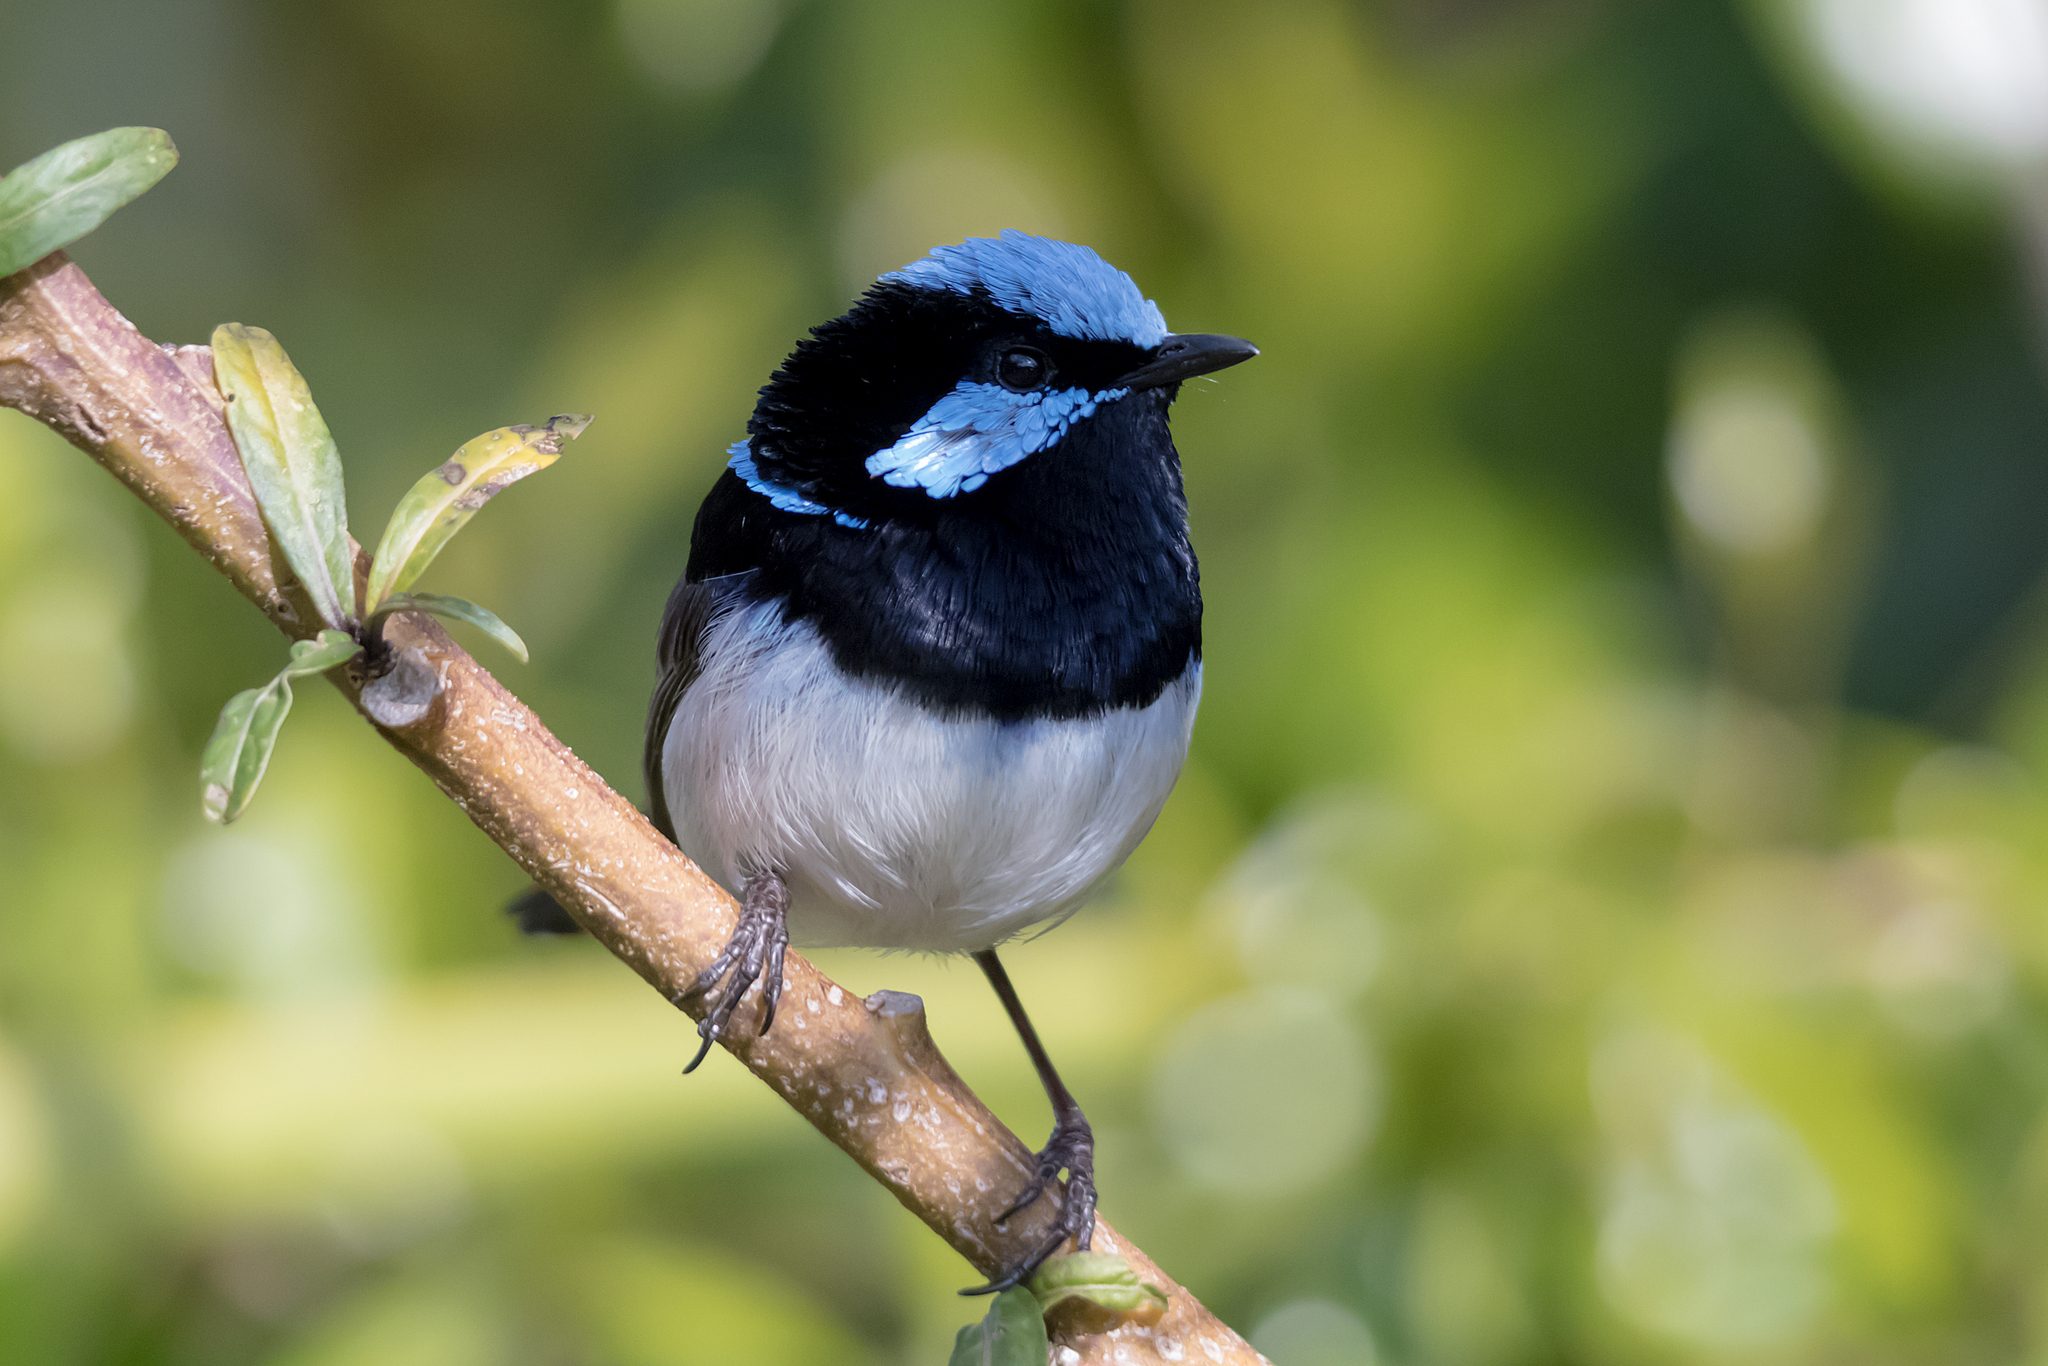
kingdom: Animalia
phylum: Chordata
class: Aves
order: Passeriformes
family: Maluridae
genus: Malurus
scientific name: Malurus cyaneus
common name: Superb fairywren
